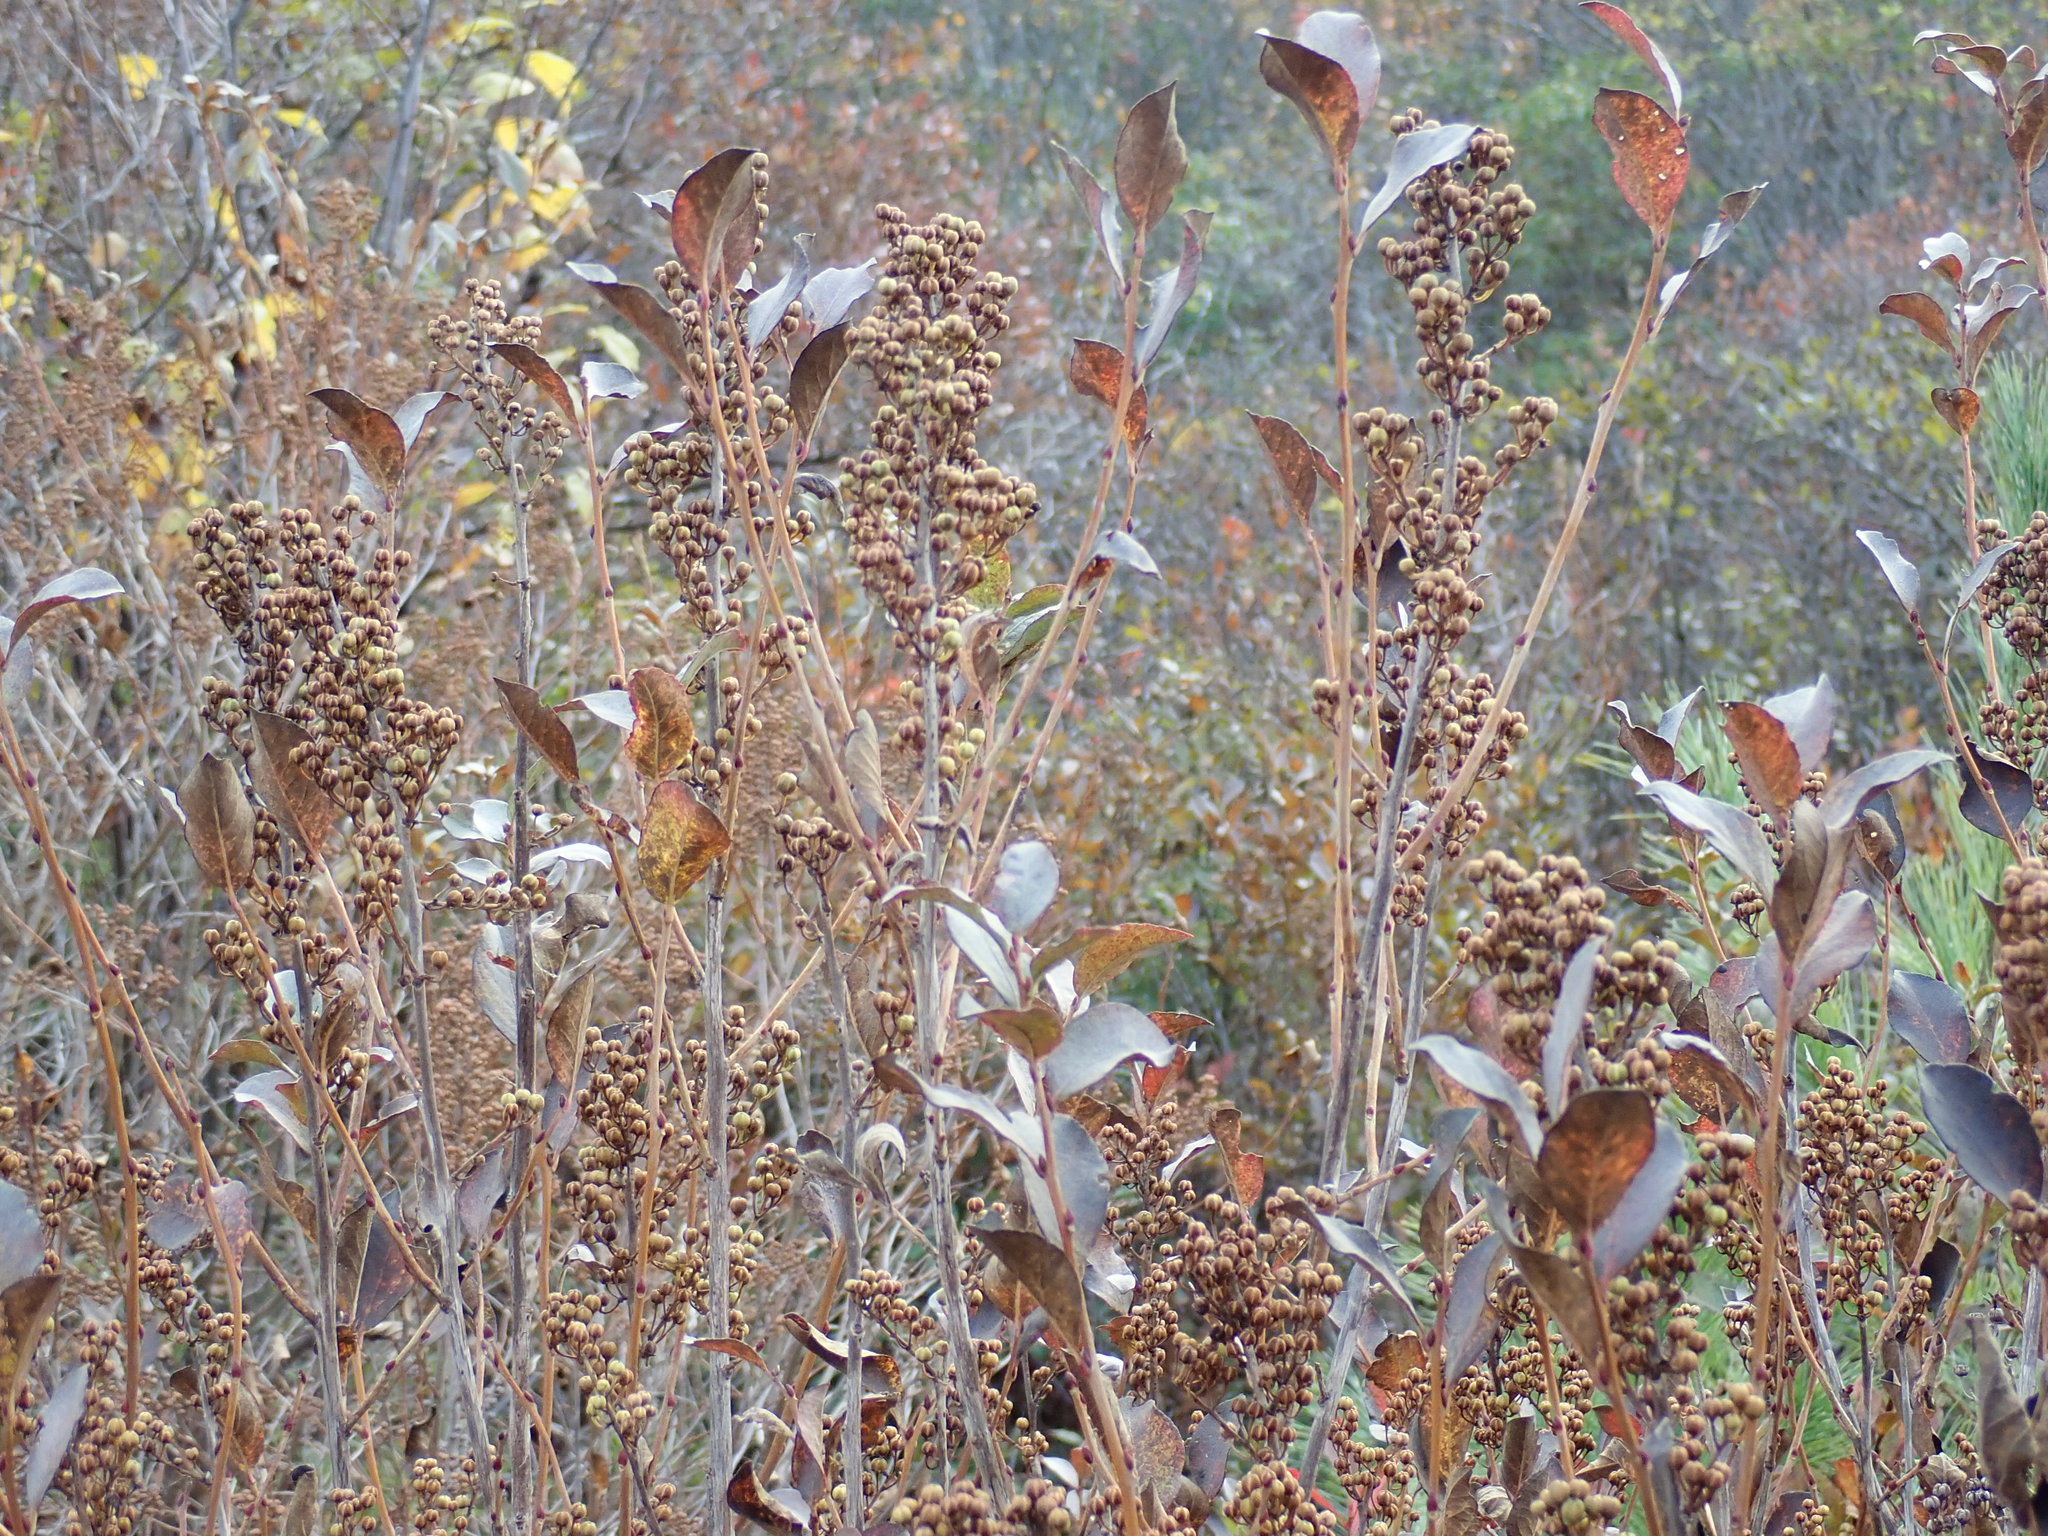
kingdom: Plantae
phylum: Tracheophyta
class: Magnoliopsida
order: Ericales
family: Ericaceae
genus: Lyonia
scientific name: Lyonia ligustrina
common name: Maleberry
